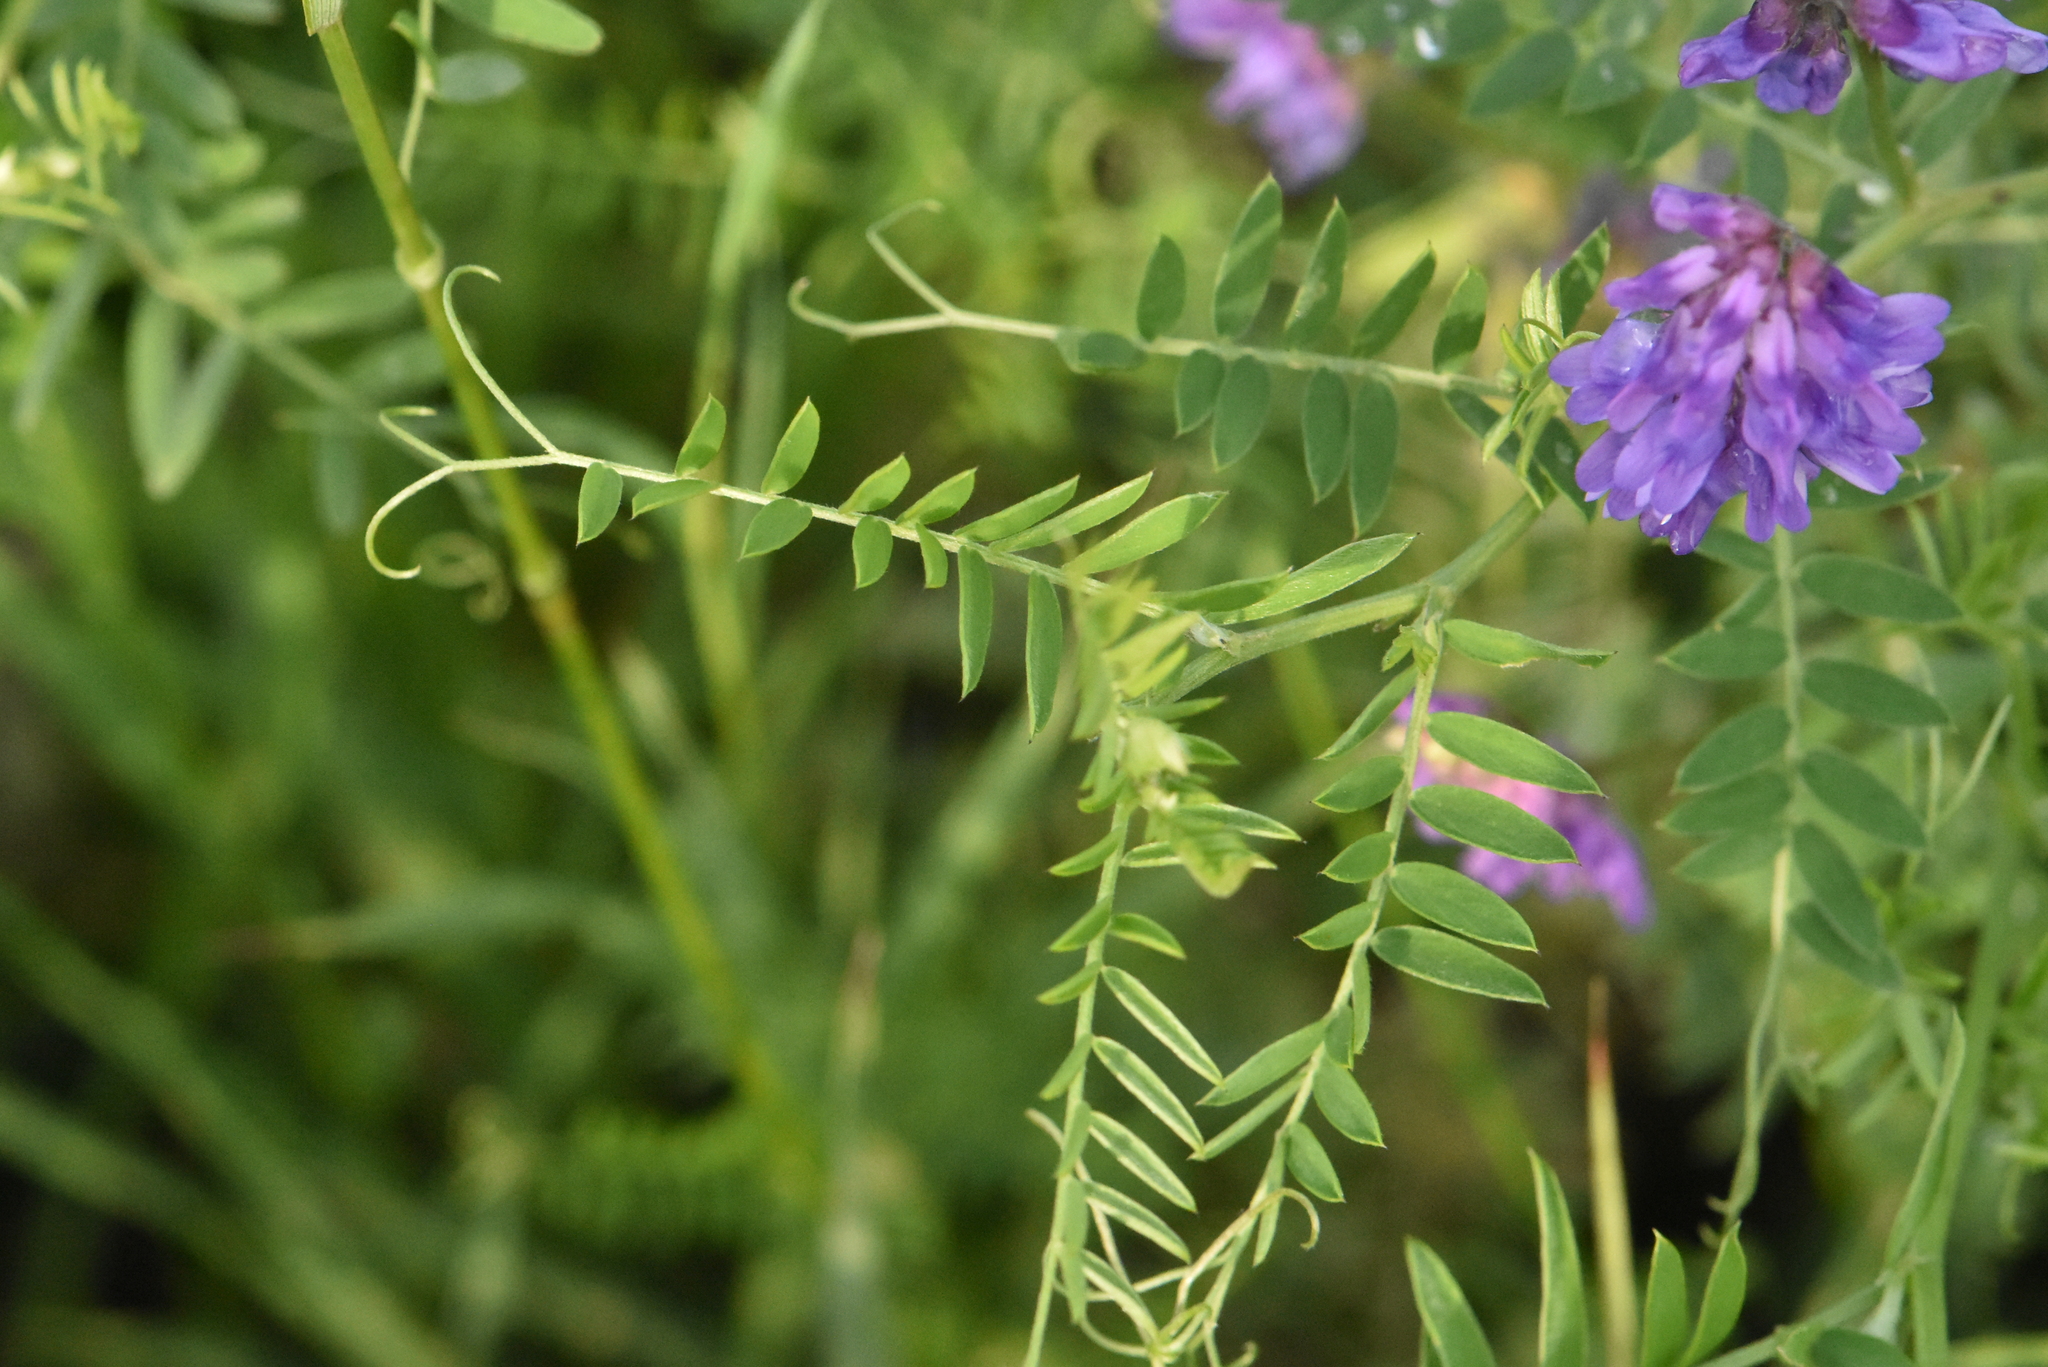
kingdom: Plantae
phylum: Tracheophyta
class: Magnoliopsida
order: Fabales
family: Fabaceae
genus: Vicia
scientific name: Vicia cracca
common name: Bird vetch
